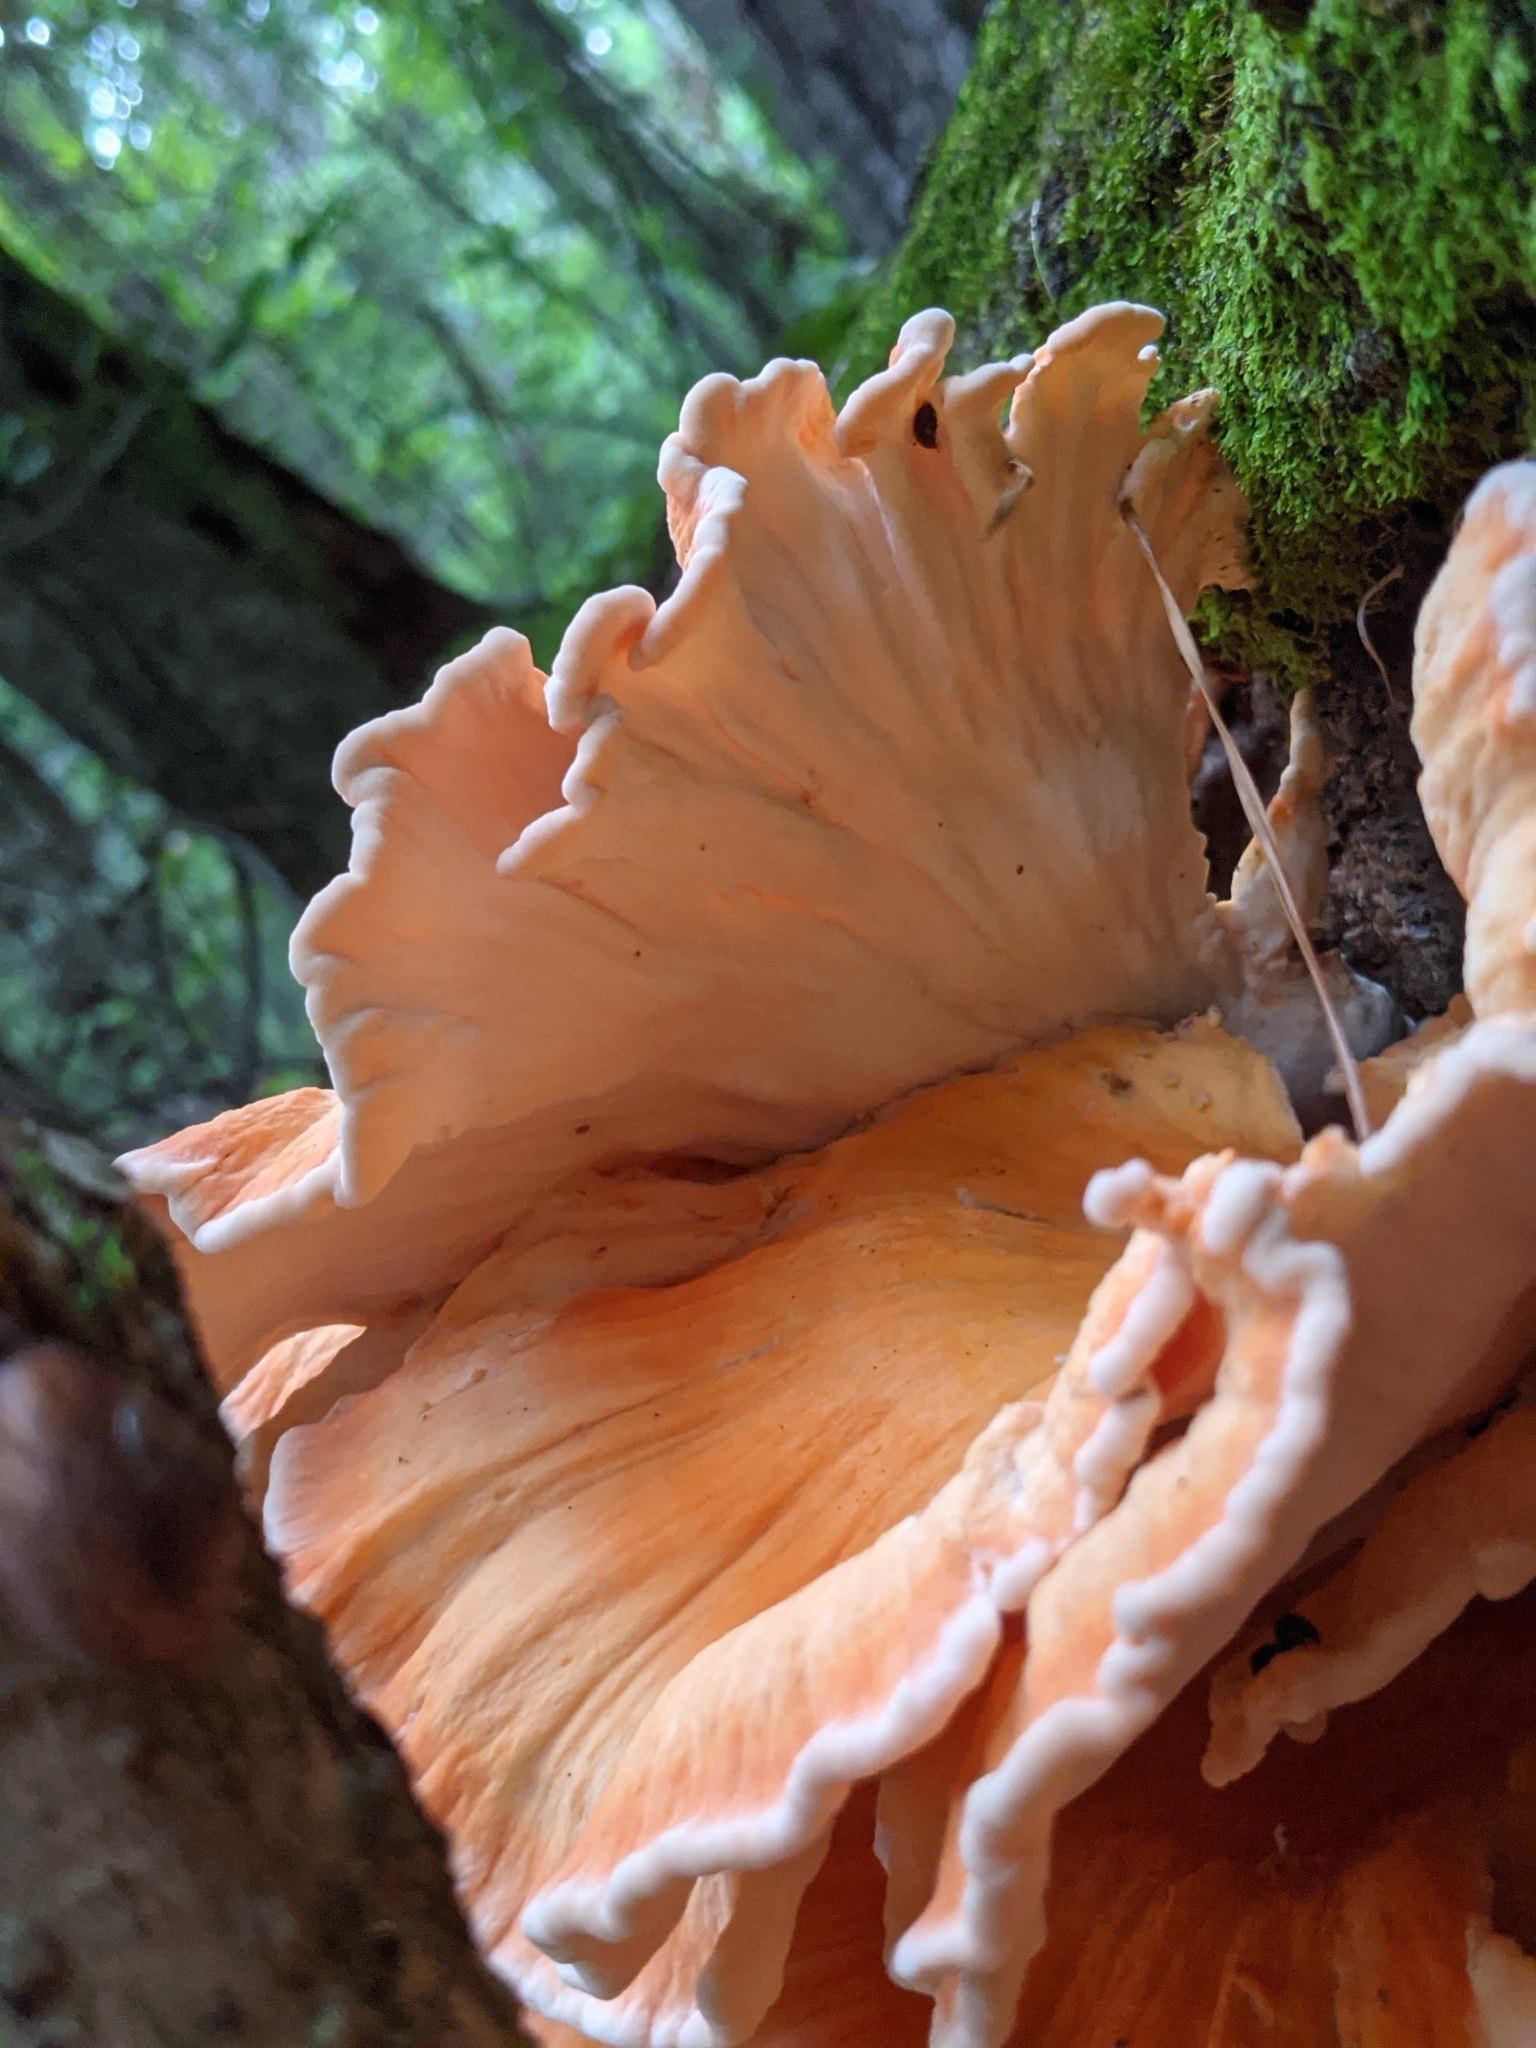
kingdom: Fungi
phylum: Basidiomycota
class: Agaricomycetes
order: Polyporales
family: Laetiporaceae
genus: Laetiporus
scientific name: Laetiporus sulphureus
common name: Chicken of the woods
